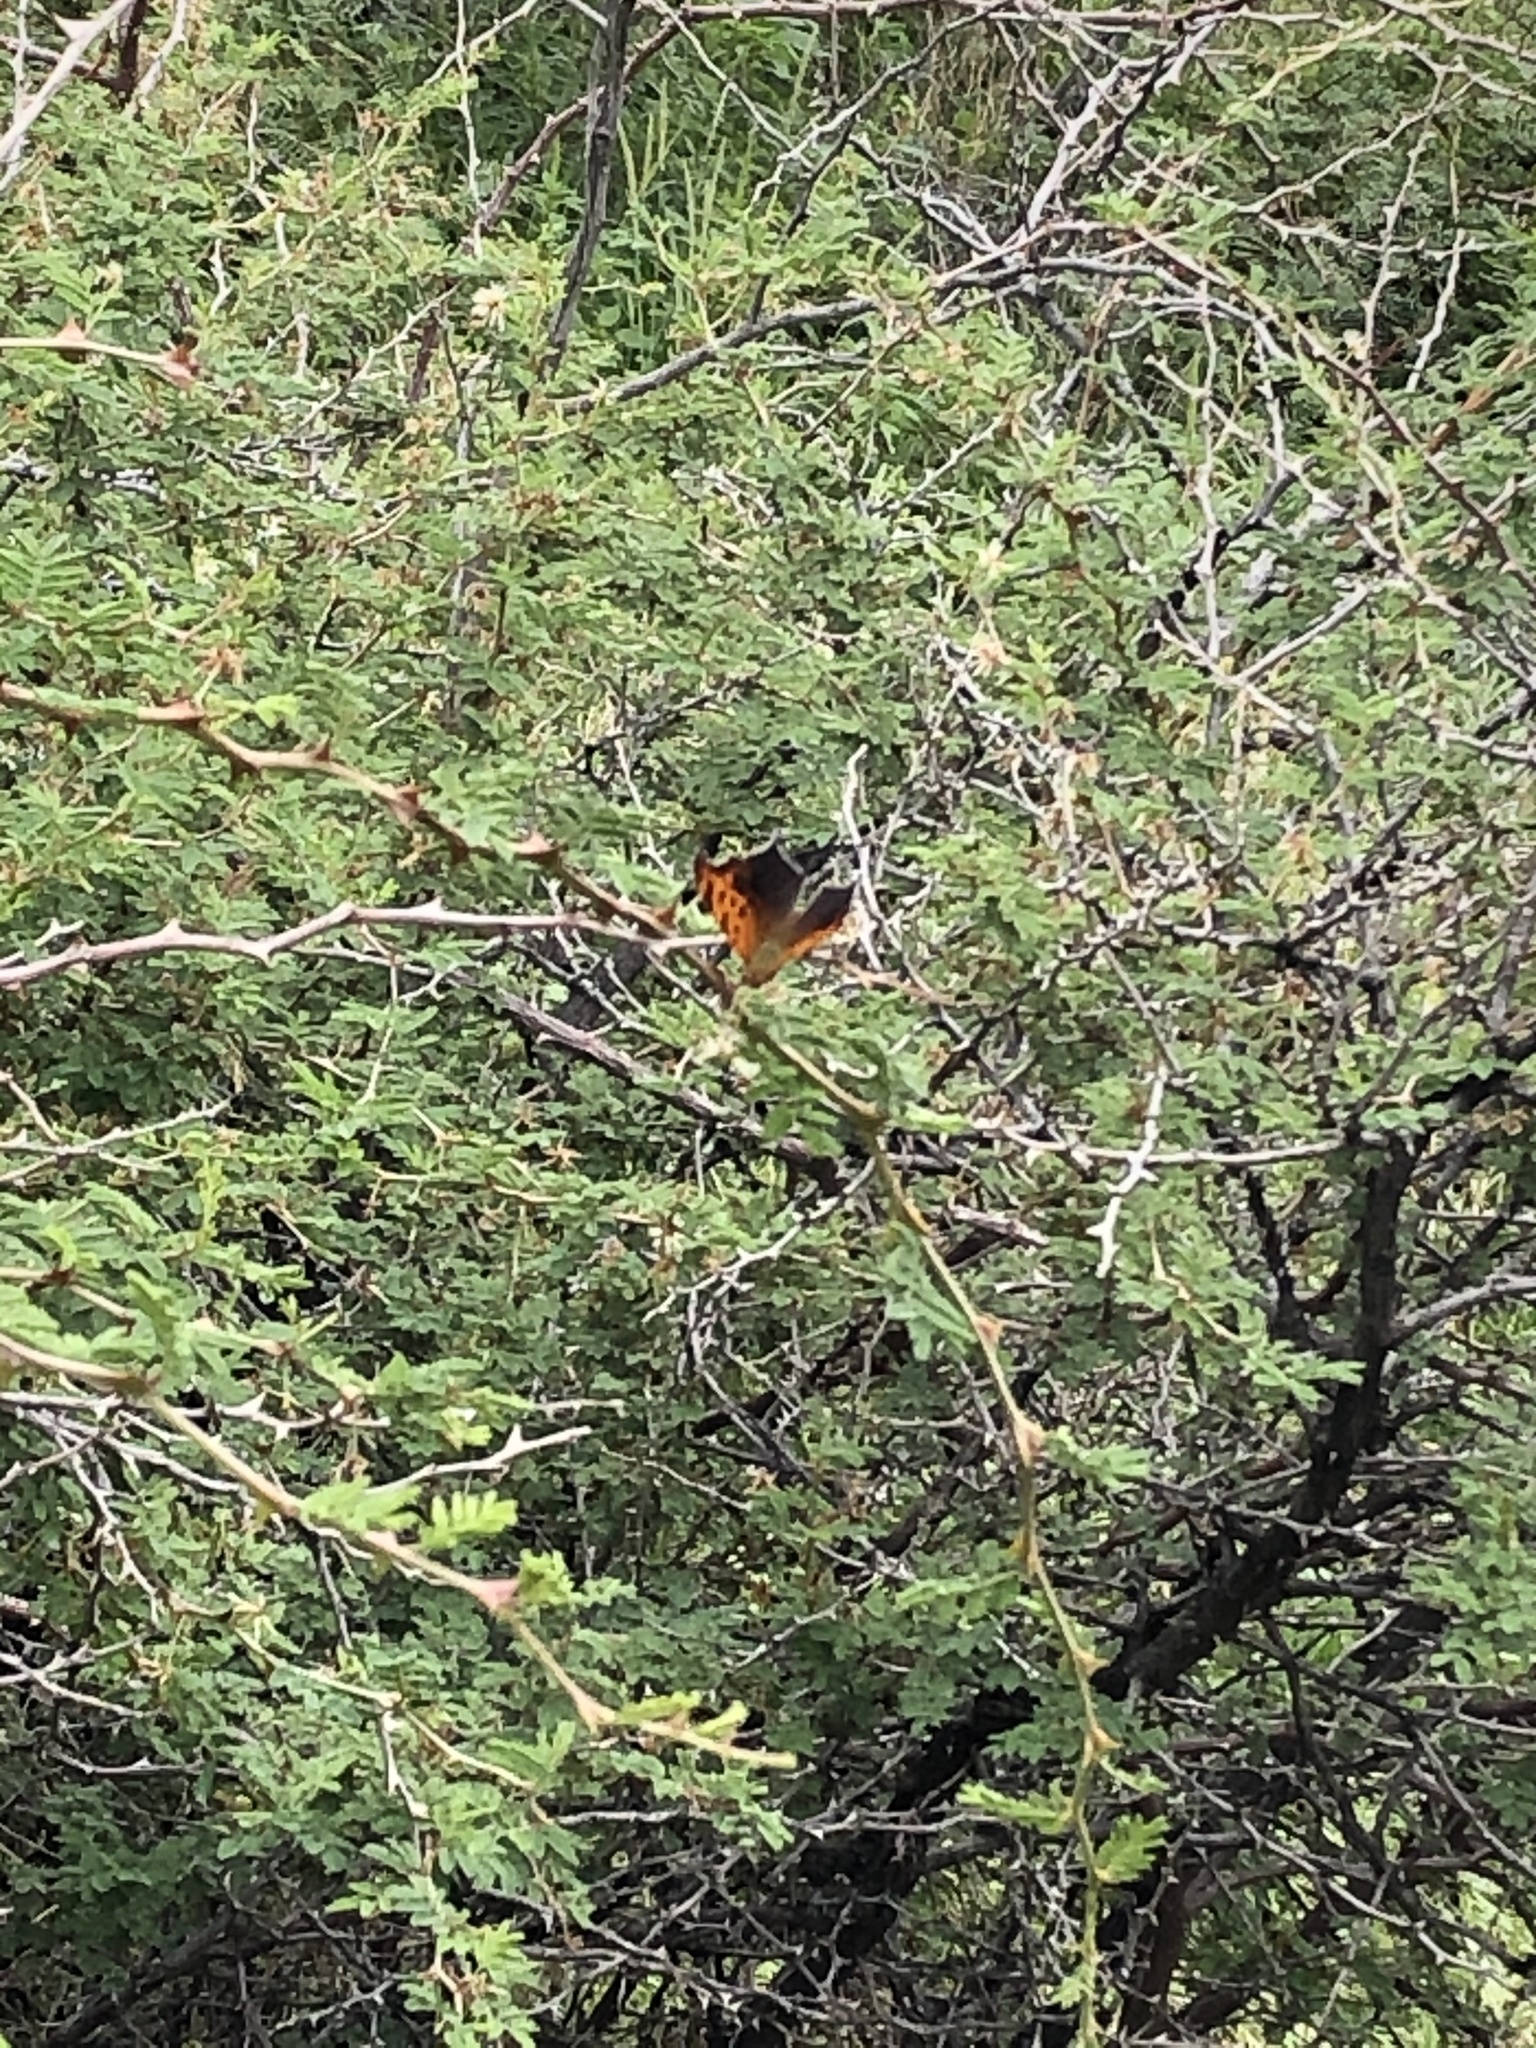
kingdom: Animalia
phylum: Arthropoda
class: Insecta
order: Lepidoptera
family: Nymphalidae
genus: Polygonia
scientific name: Polygonia interrogationis
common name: Question mark
